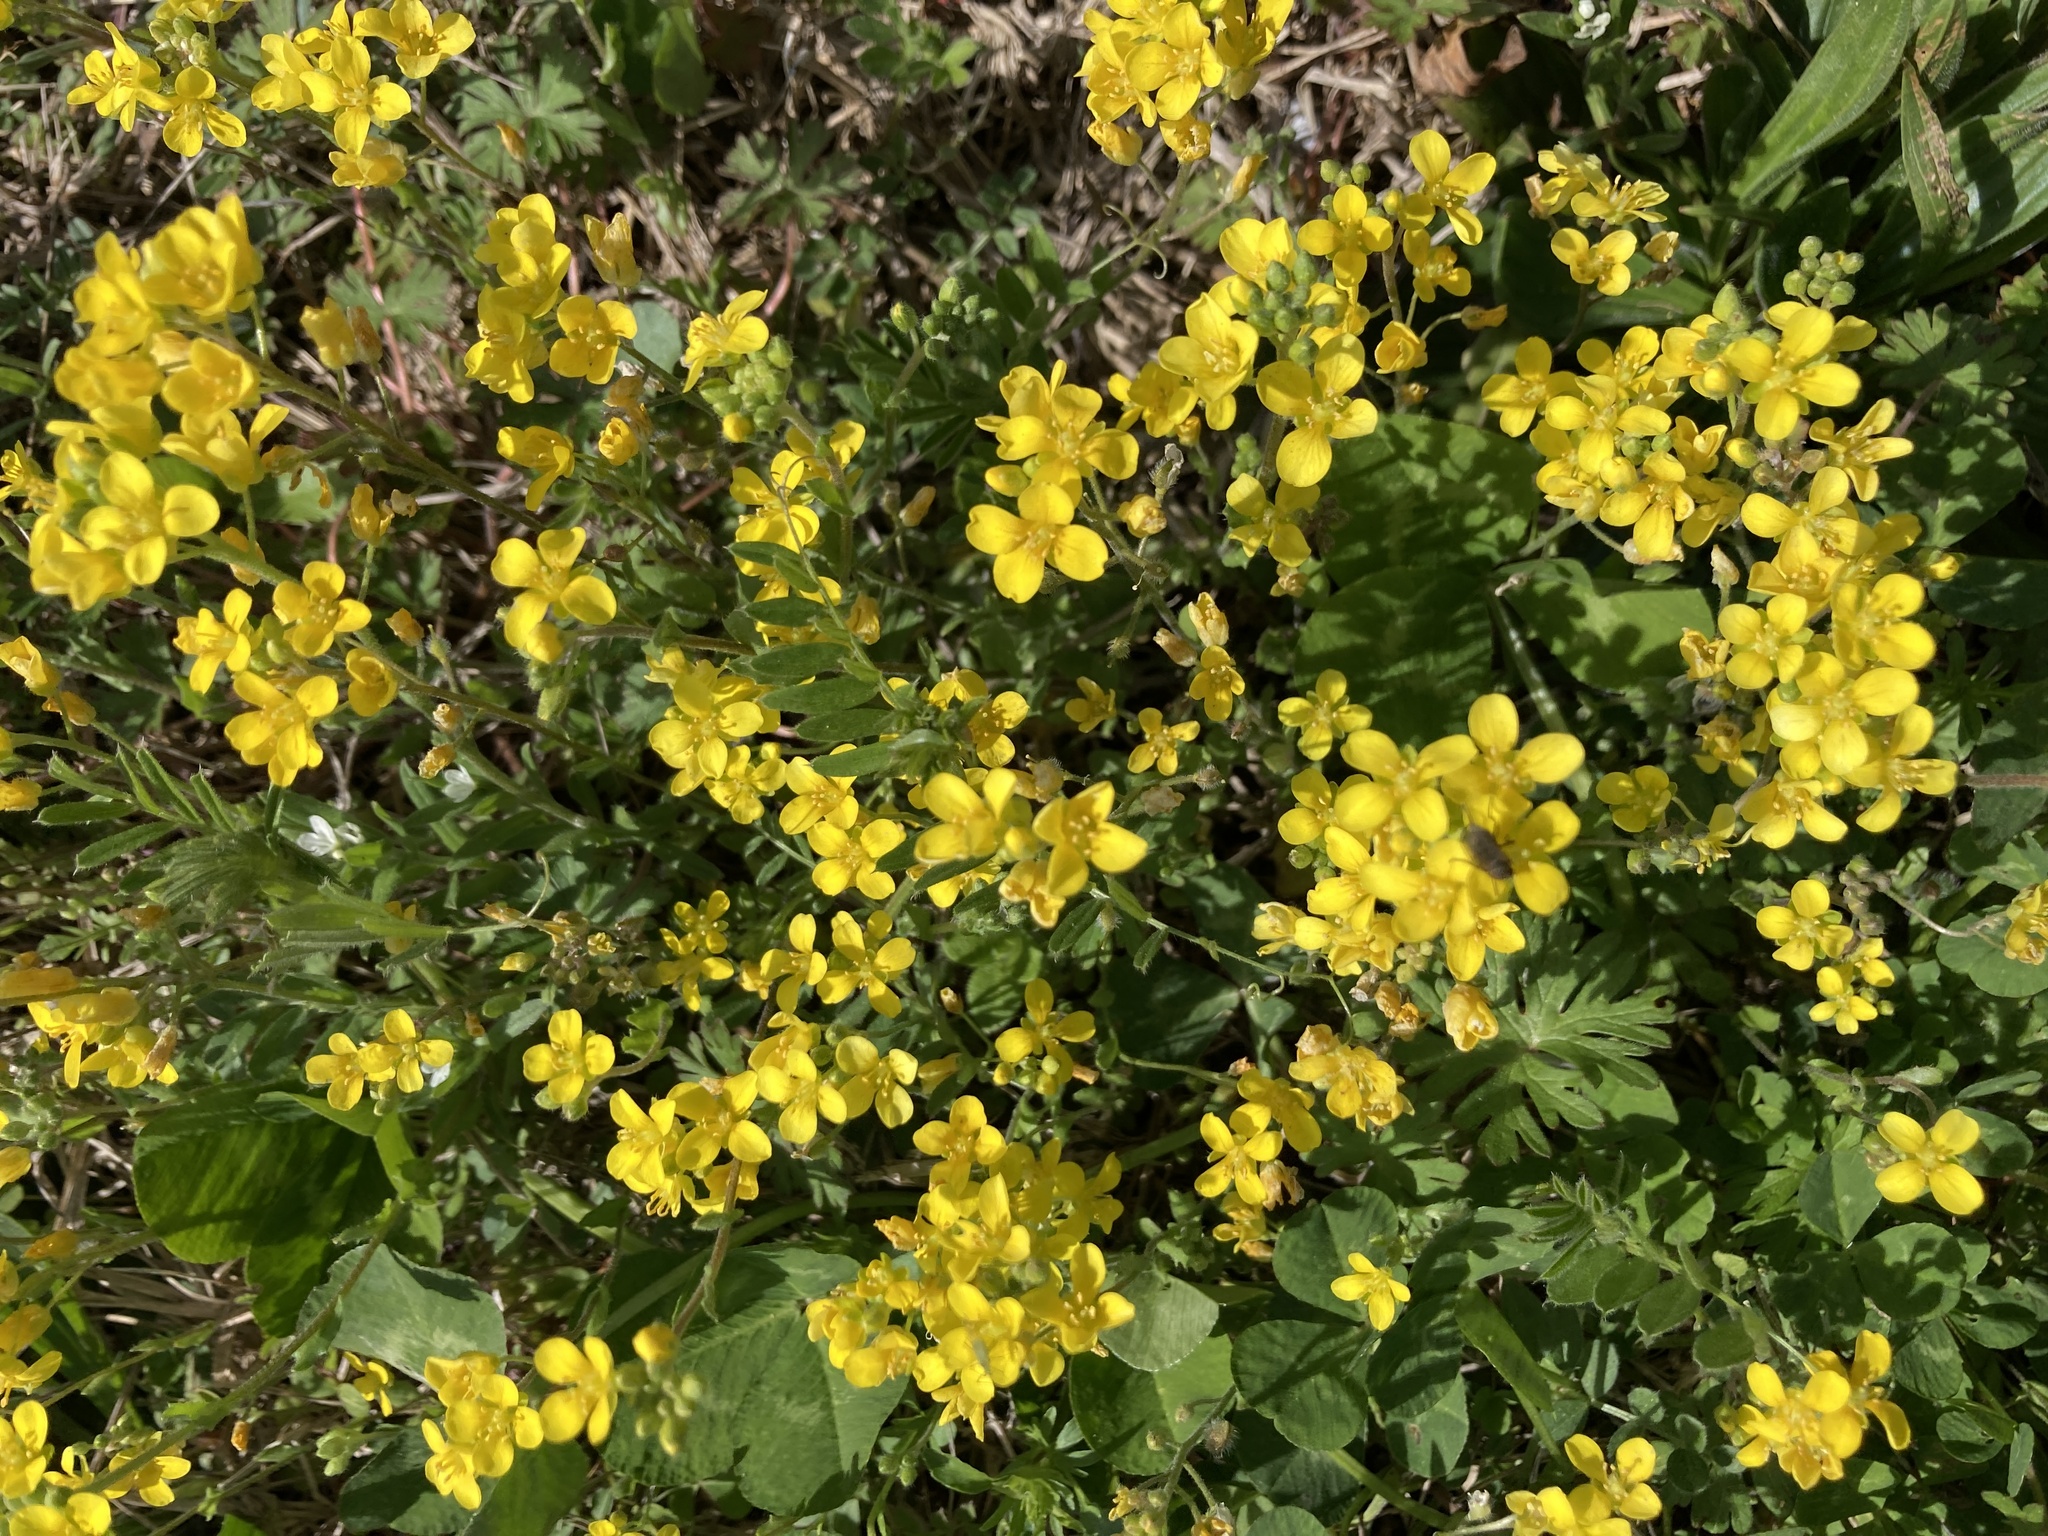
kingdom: Plantae
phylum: Tracheophyta
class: Magnoliopsida
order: Brassicales
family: Brassicaceae
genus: Paysonia
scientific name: Paysonia lescurii
